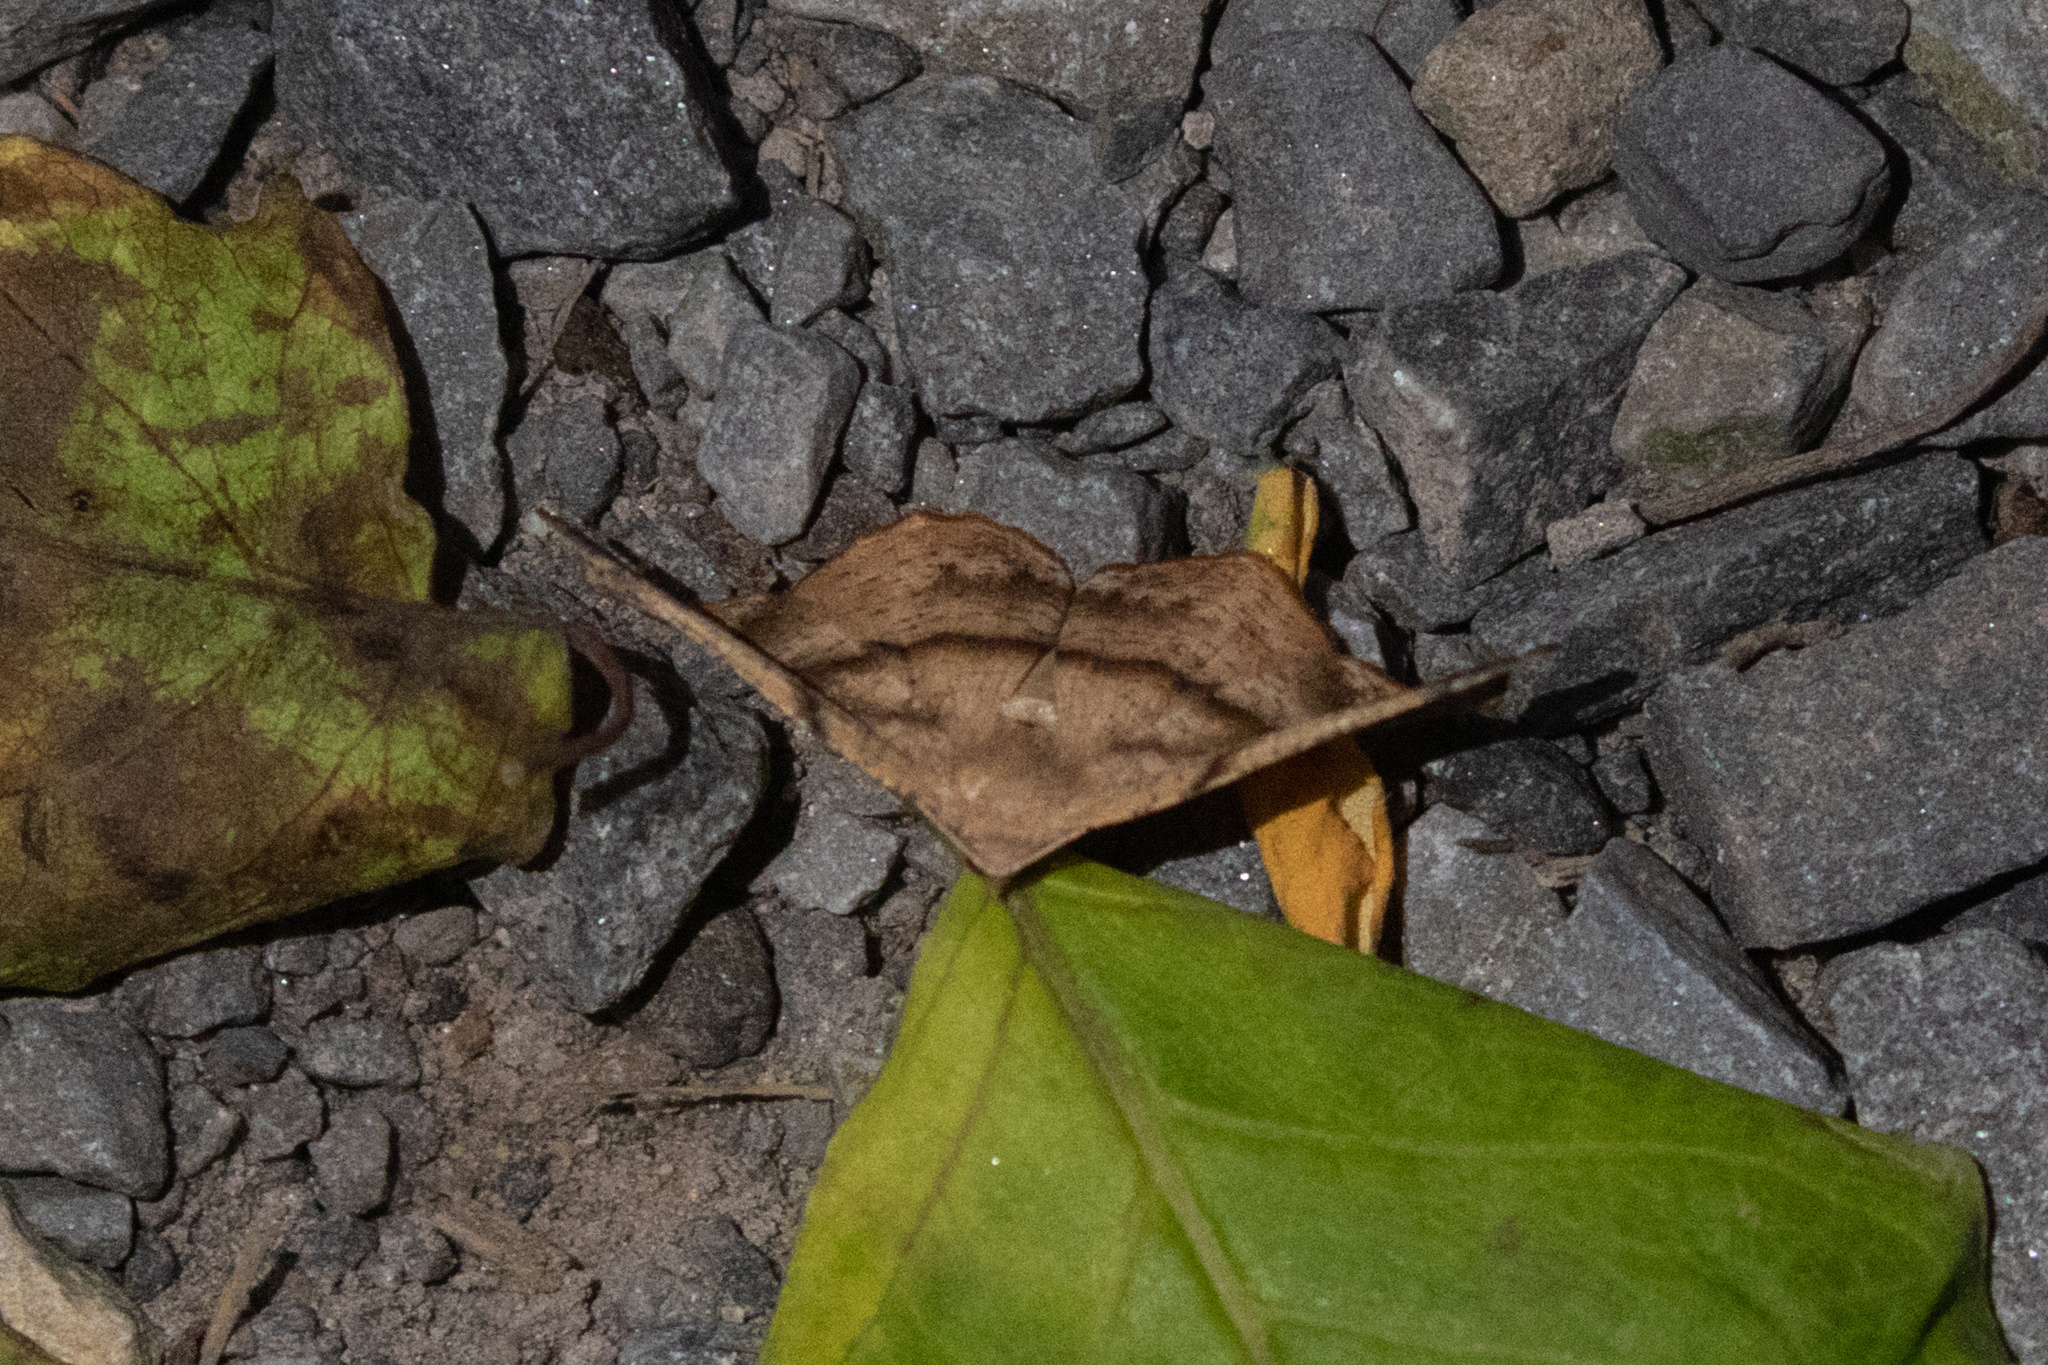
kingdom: Animalia
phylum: Arthropoda
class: Insecta
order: Lepidoptera
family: Geometridae
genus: Patalene
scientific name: Patalene olyzonaria
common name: Juniper geometer moth
